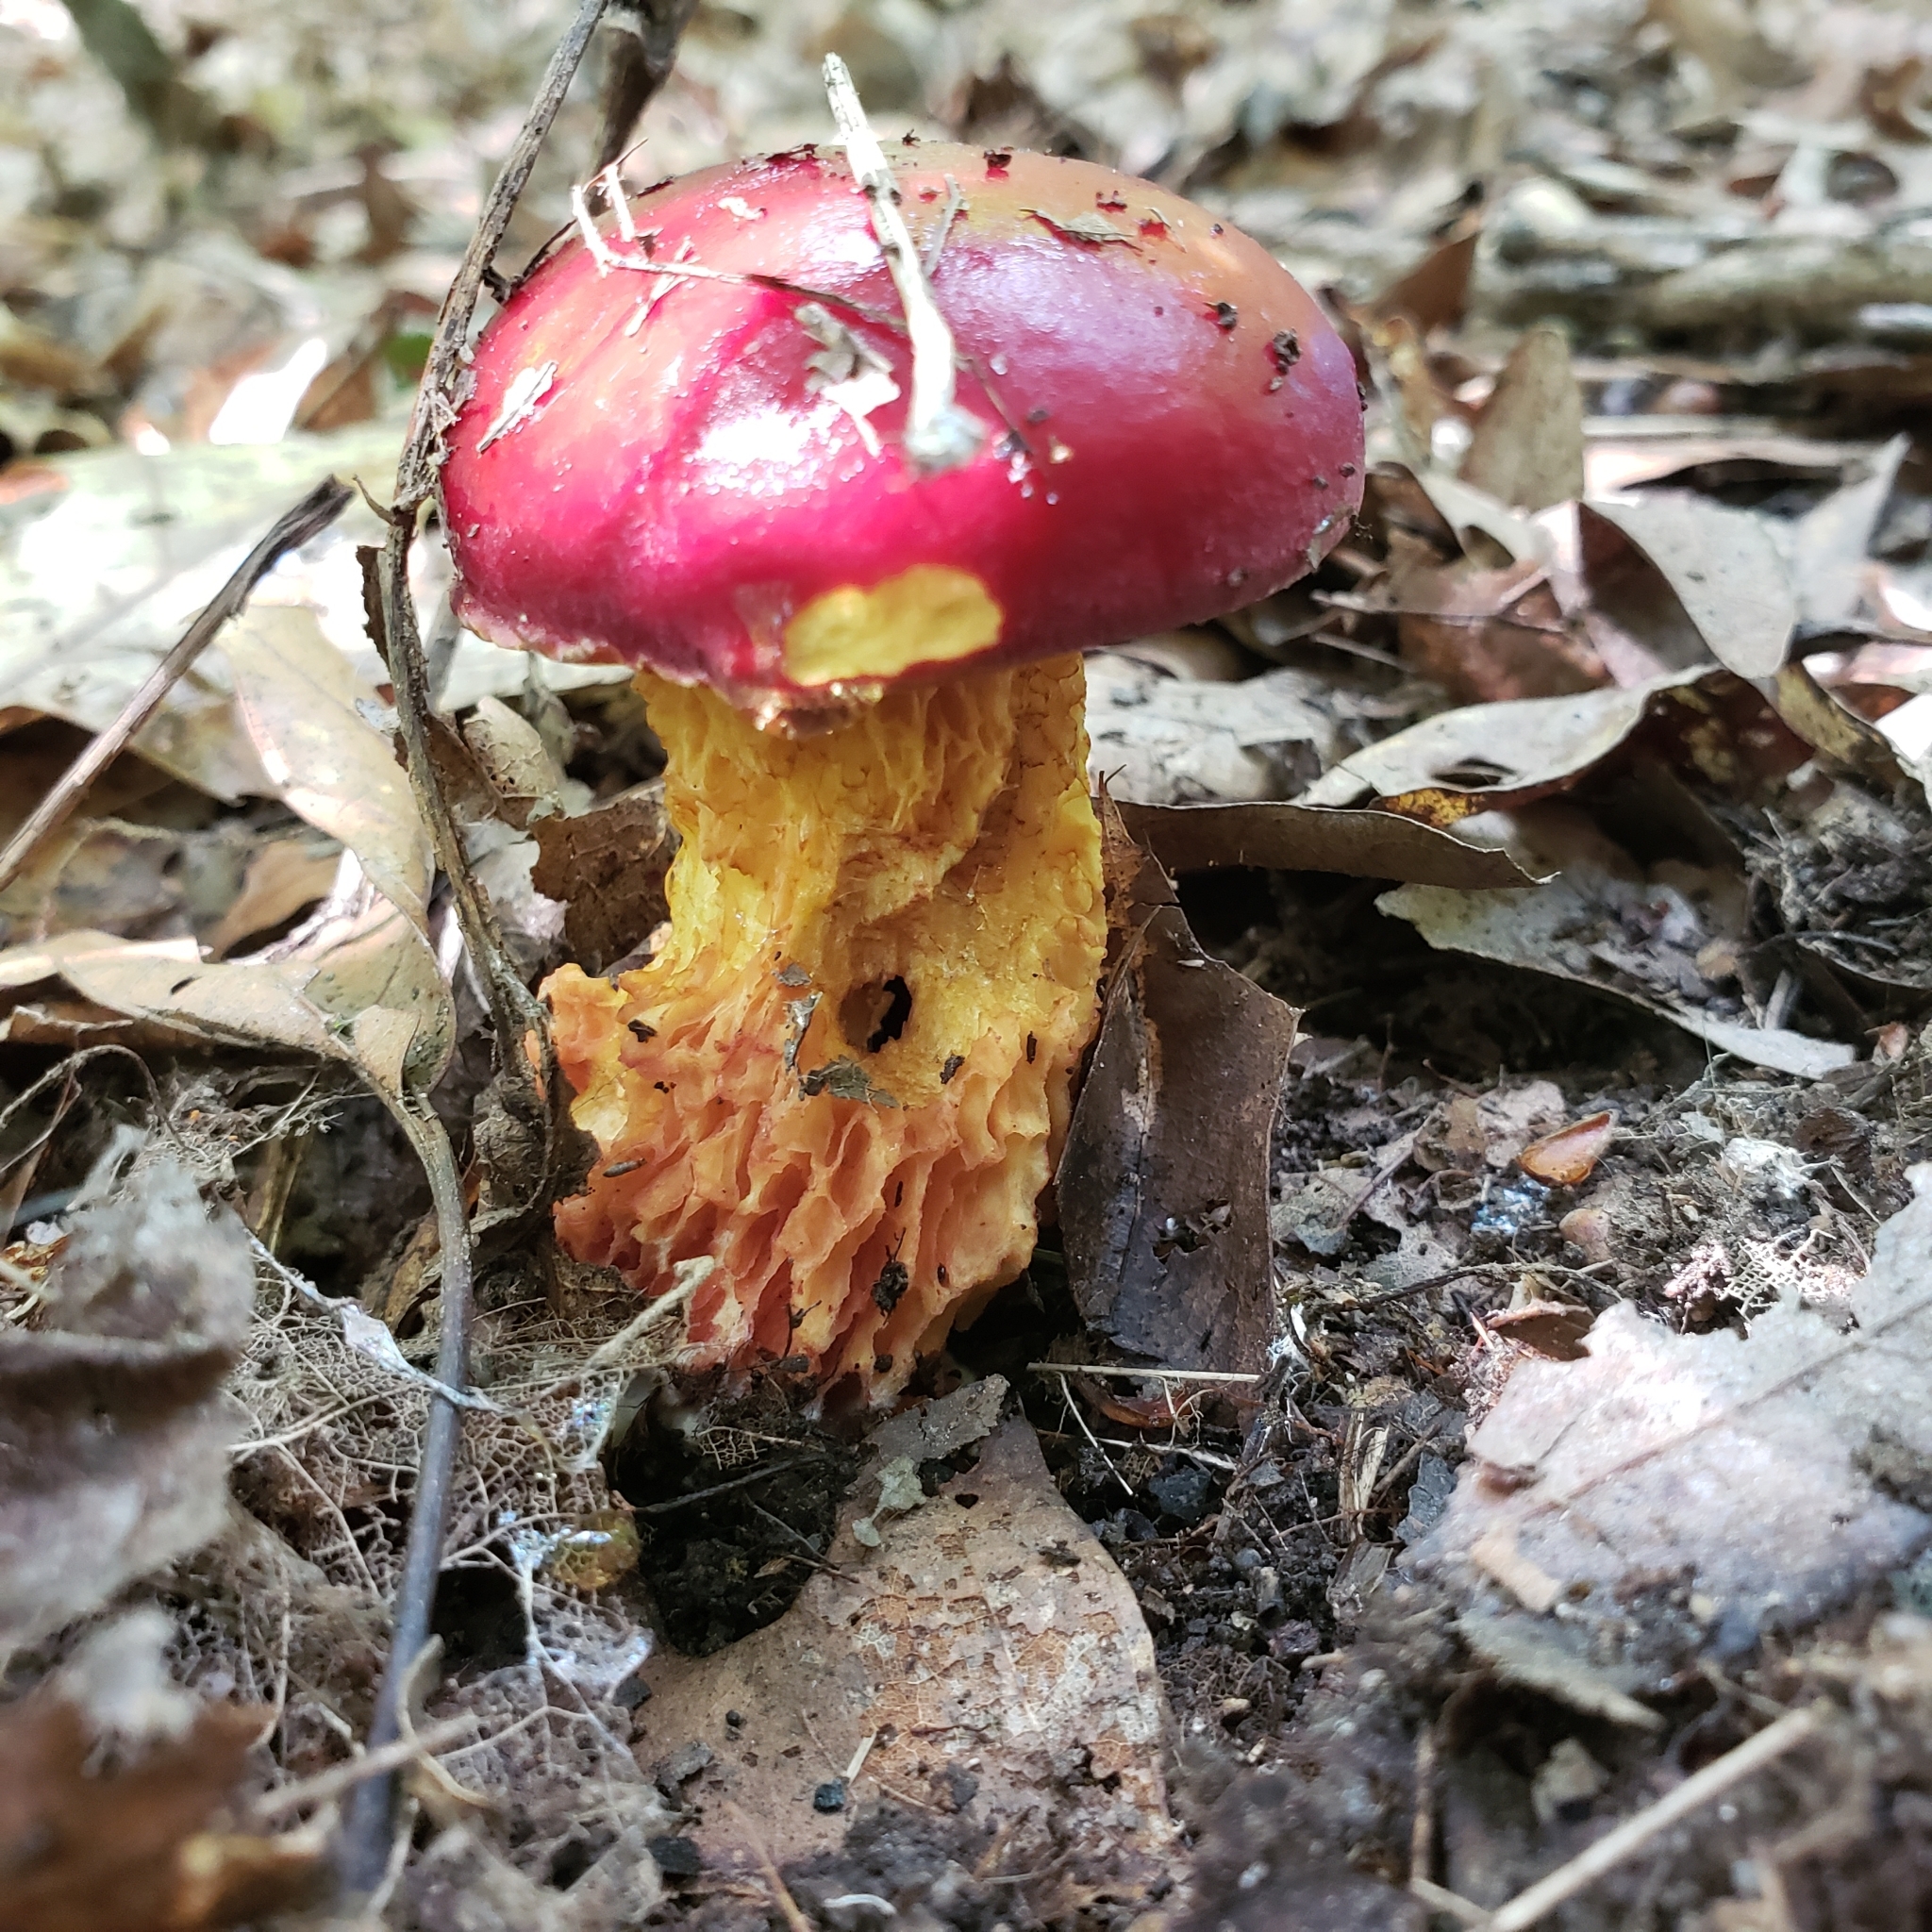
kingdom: Fungi
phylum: Basidiomycota
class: Agaricomycetes
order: Boletales
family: Boletaceae
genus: Butyriboletus
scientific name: Butyriboletus frostii
